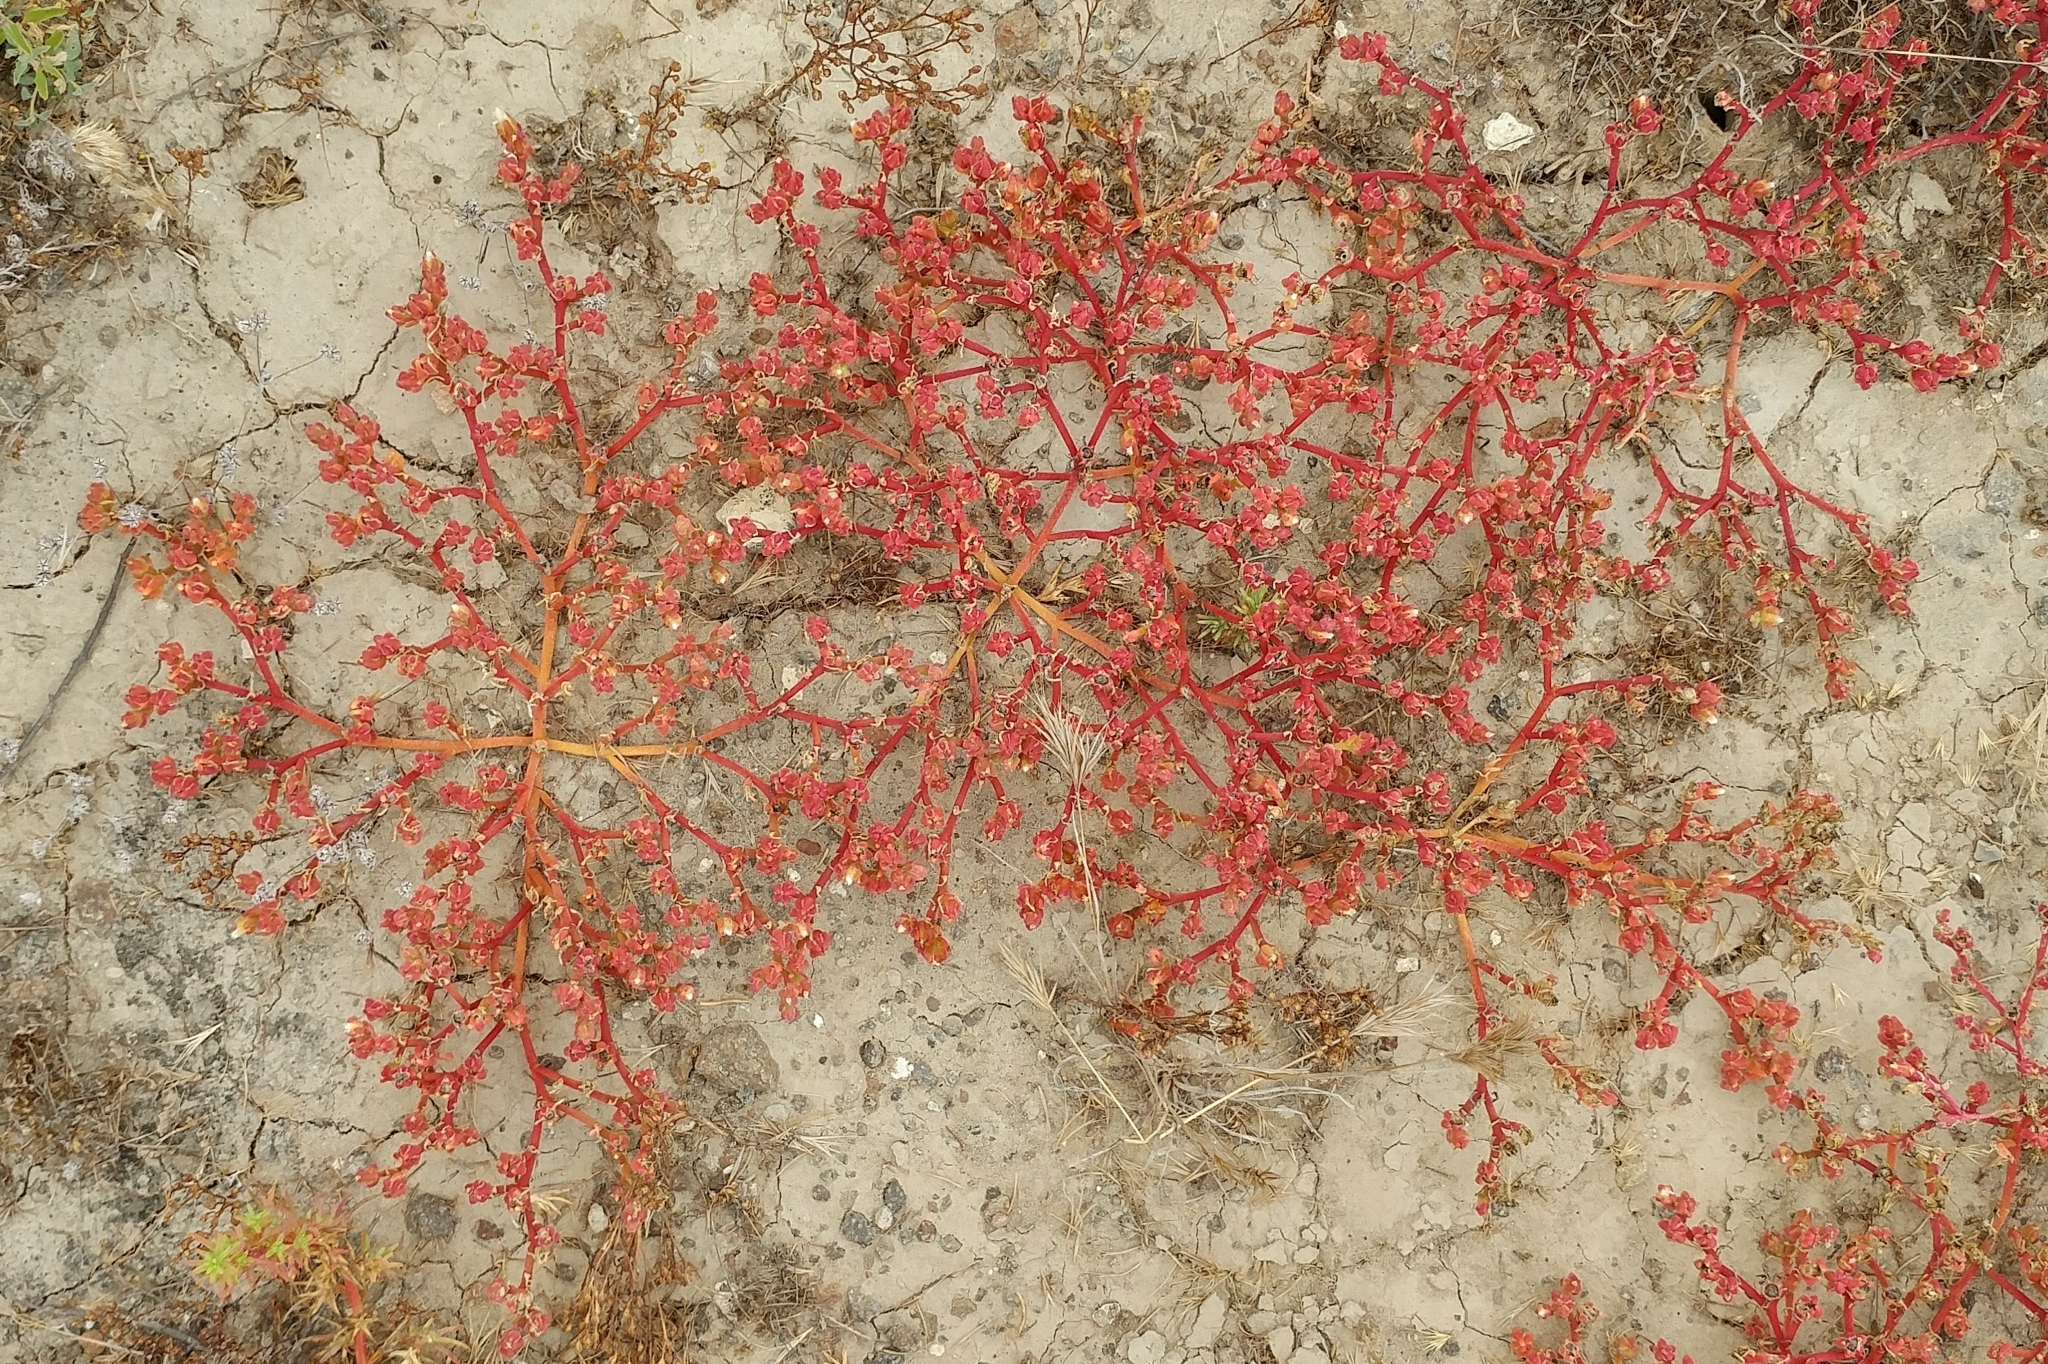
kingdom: Plantae
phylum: Tracheophyta
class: Magnoliopsida
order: Caryophyllales
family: Aizoaceae
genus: Mesembryanthemum
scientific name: Mesembryanthemum nodiflorum
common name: Slenderleaf iceplant
